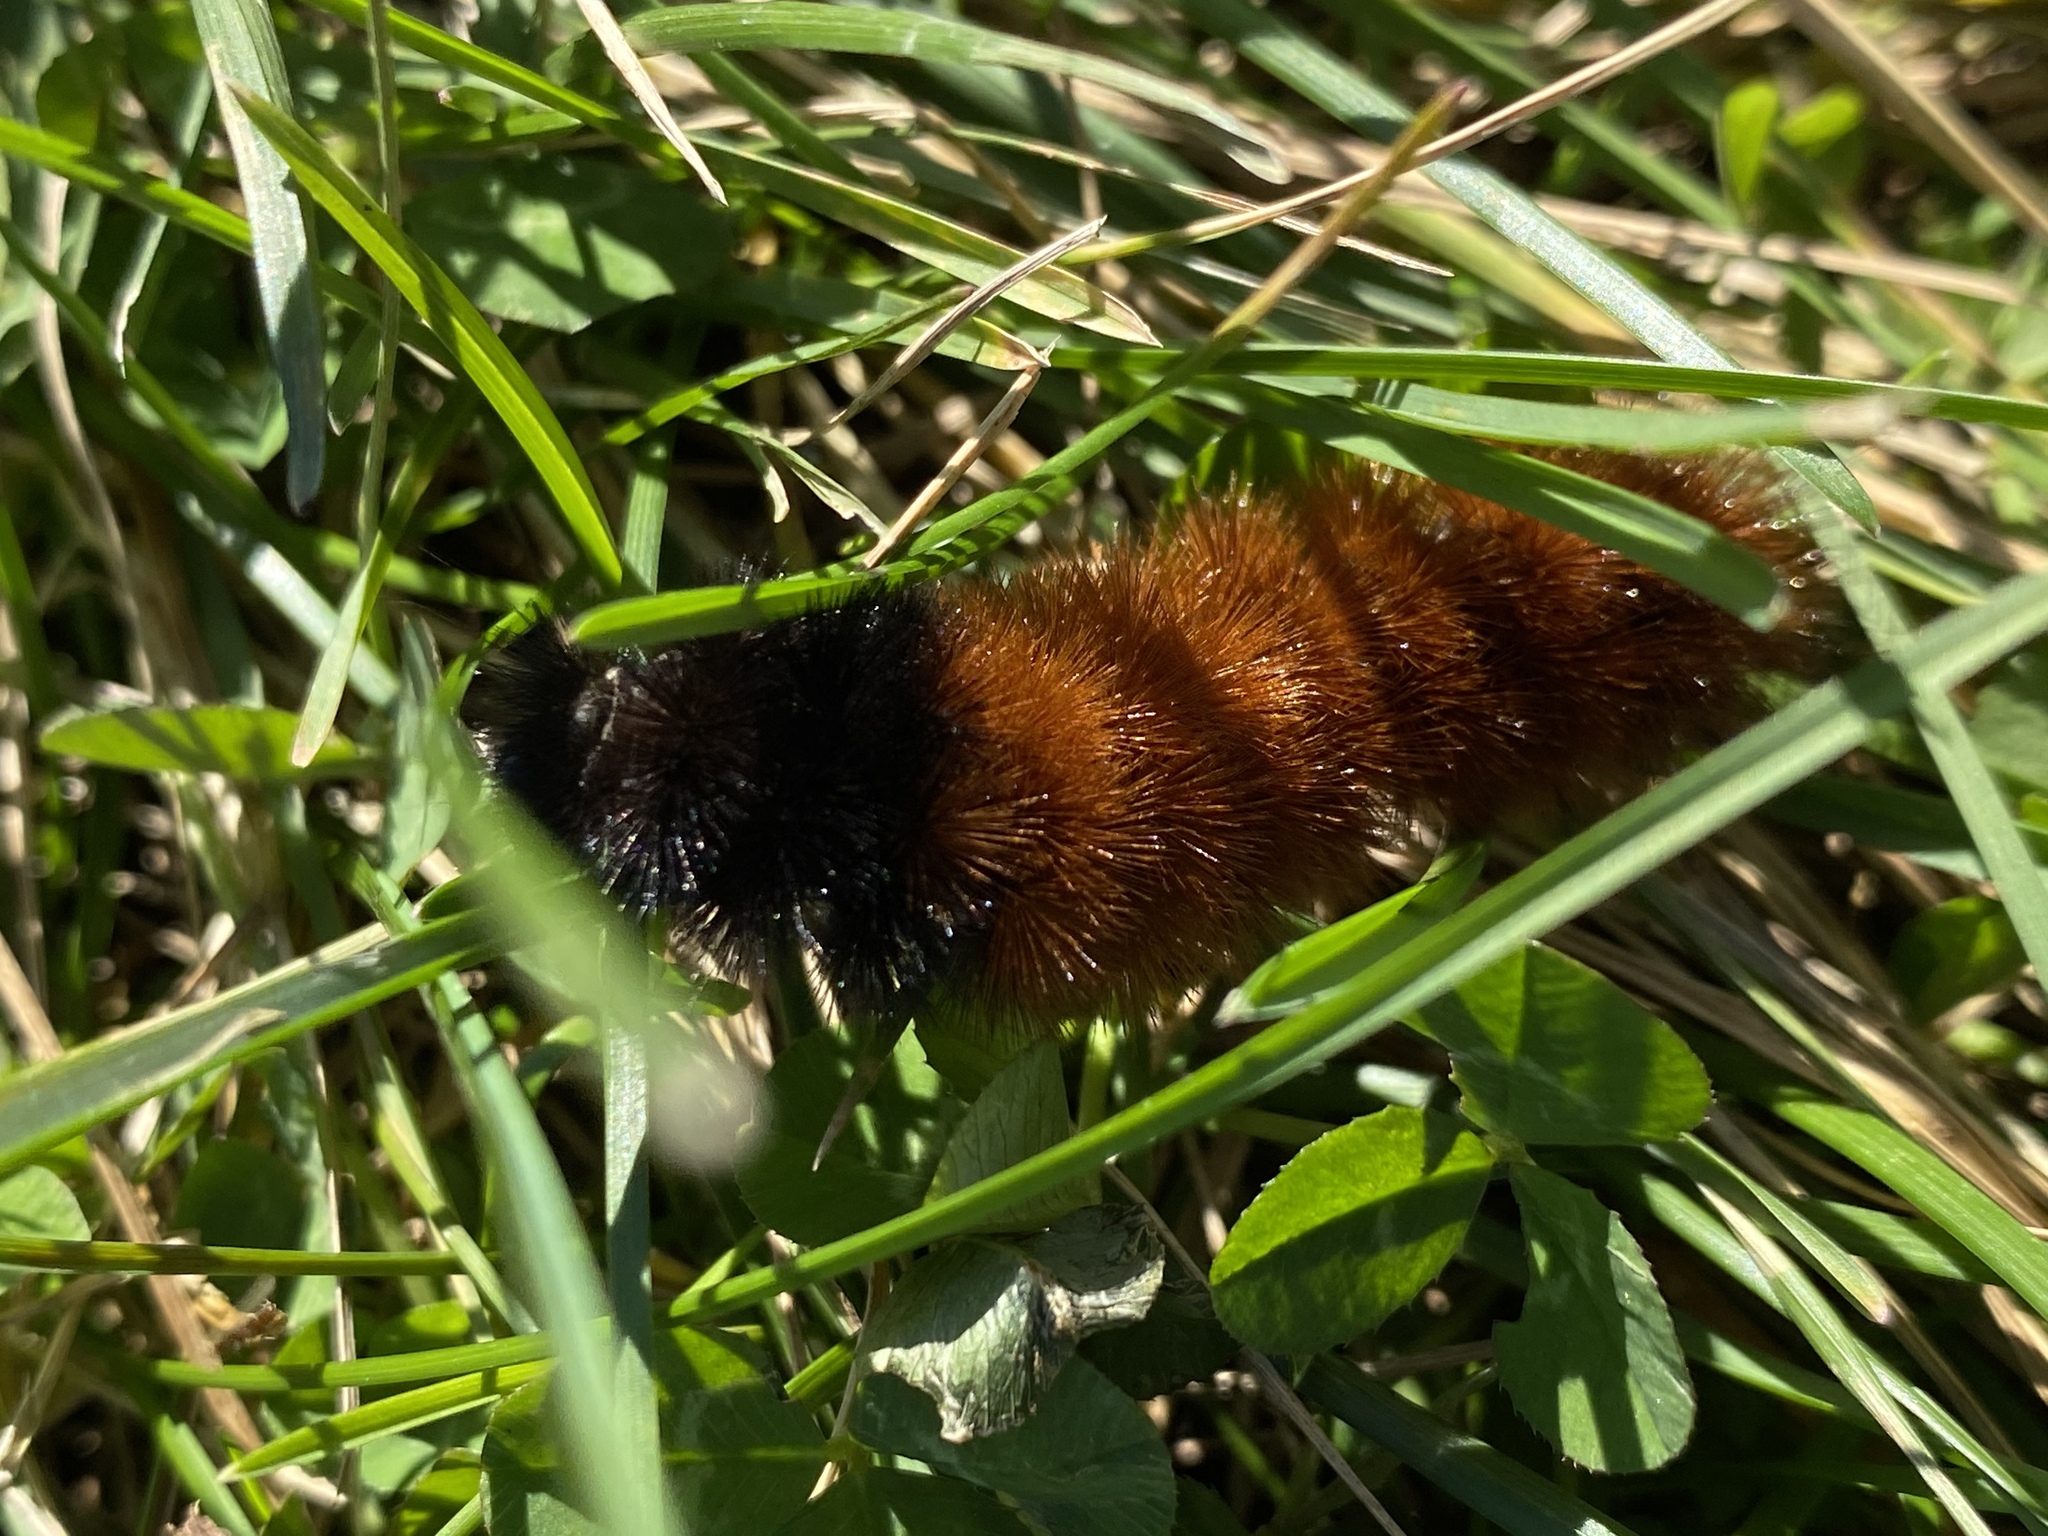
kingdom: Animalia
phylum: Arthropoda
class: Insecta
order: Lepidoptera
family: Erebidae
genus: Pyrrharctia
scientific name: Pyrrharctia isabella
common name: Isabella tiger moth
